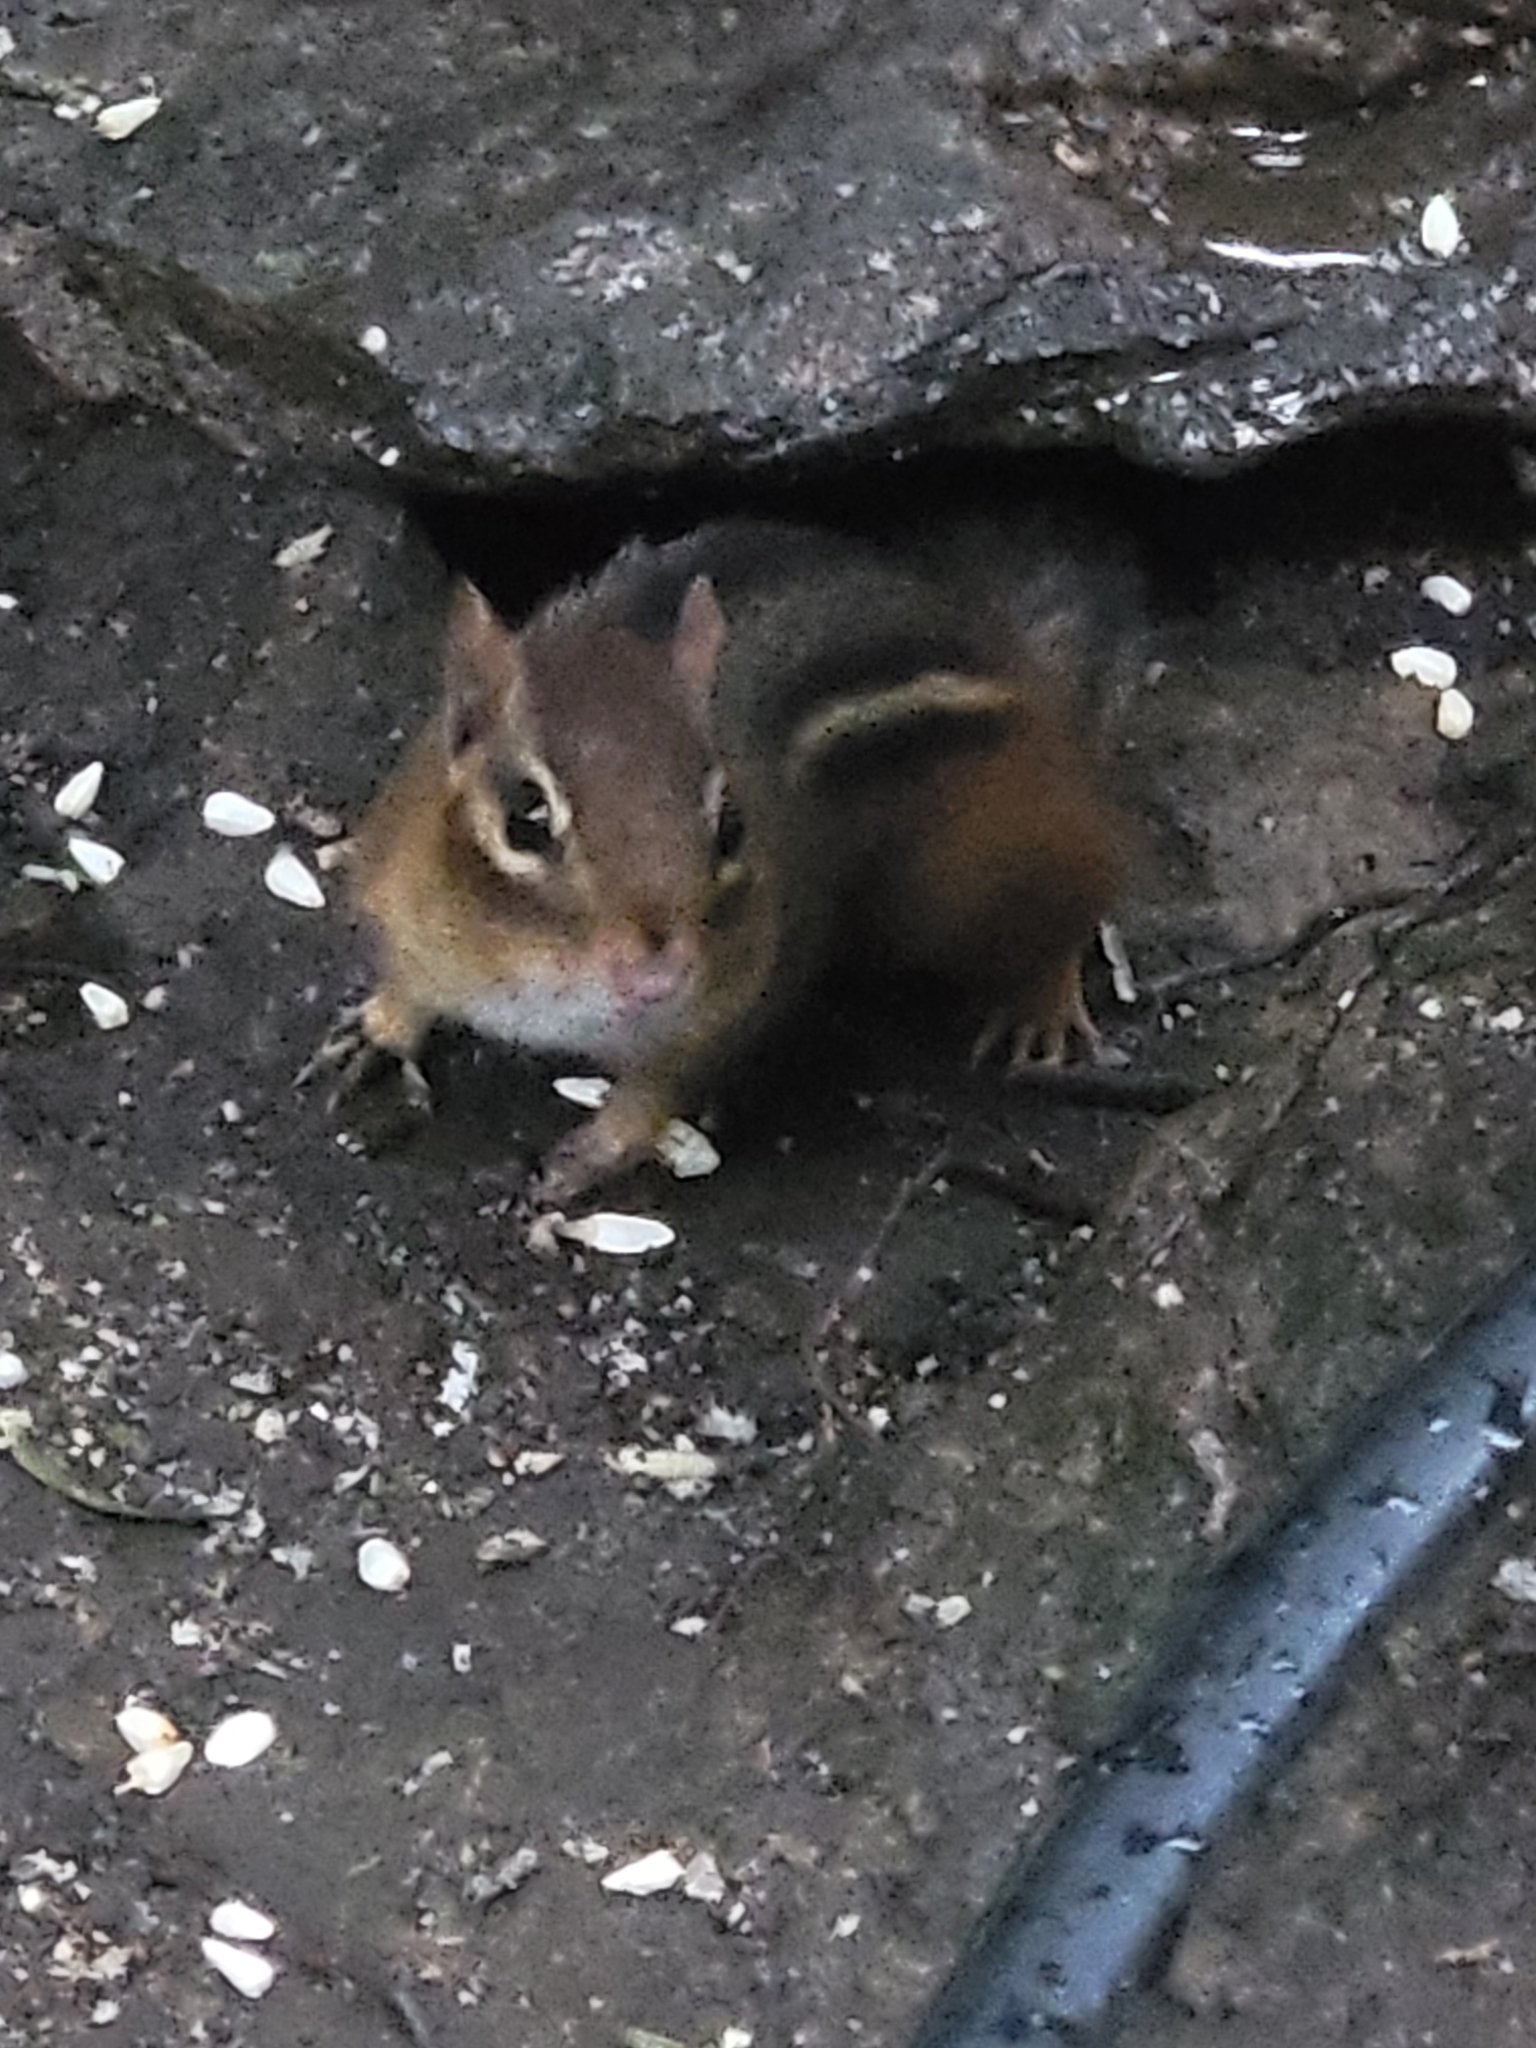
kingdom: Animalia
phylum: Chordata
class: Mammalia
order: Rodentia
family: Sciuridae
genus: Tamias
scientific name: Tamias striatus
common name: Eastern chipmunk
